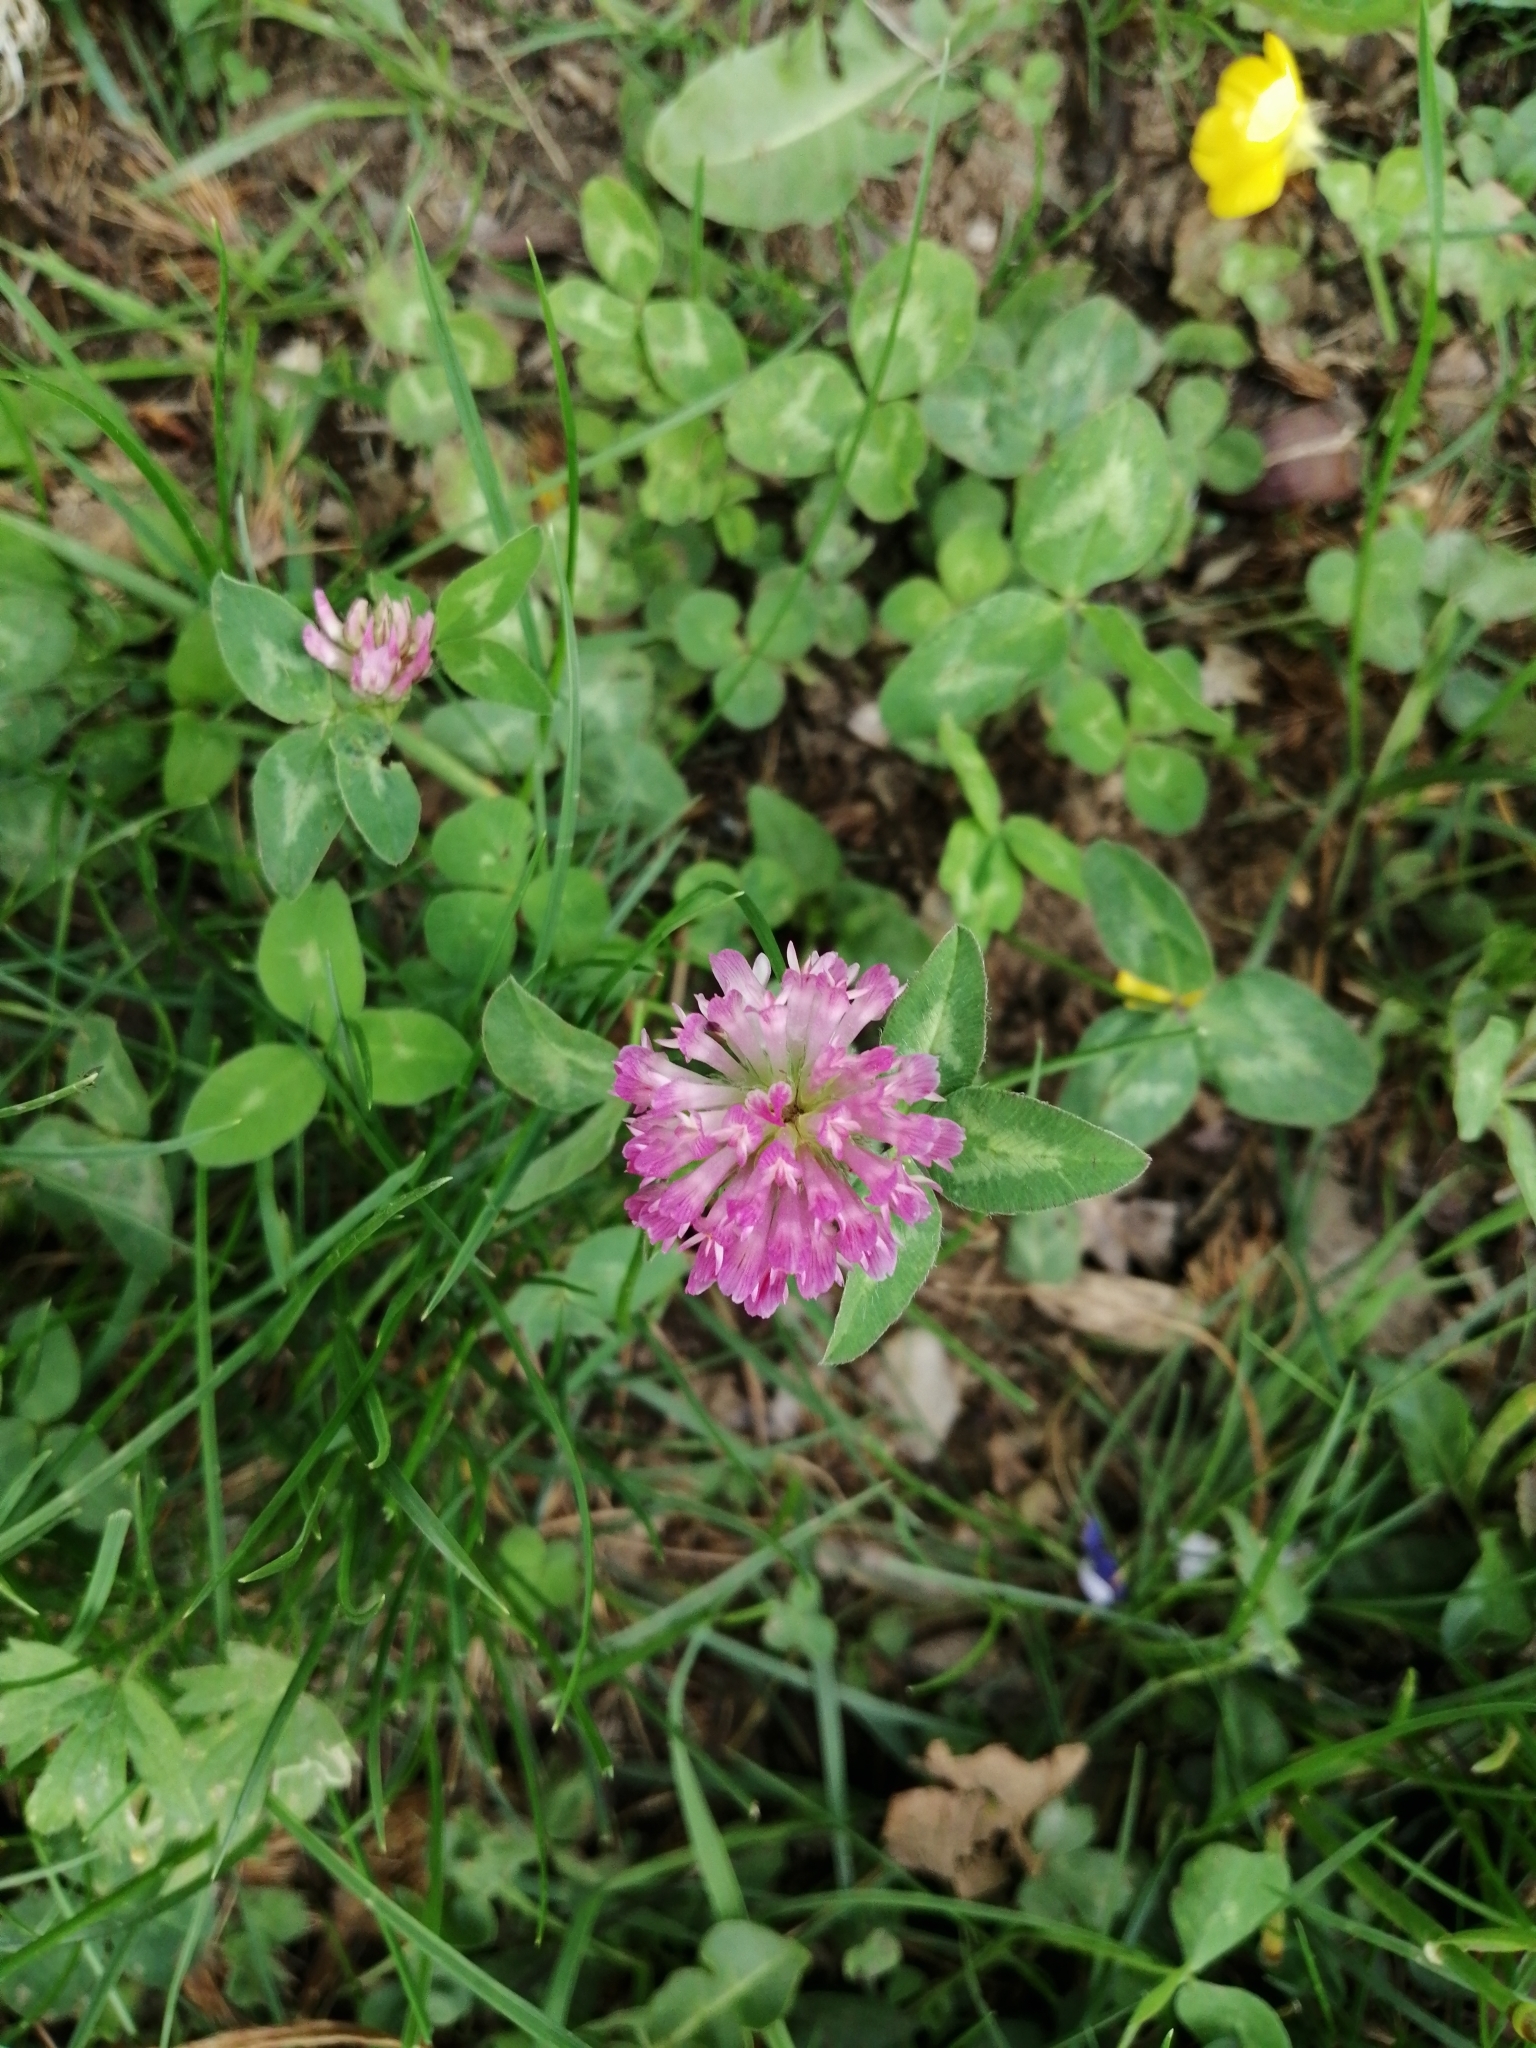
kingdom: Plantae
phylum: Tracheophyta
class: Magnoliopsida
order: Fabales
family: Fabaceae
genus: Trifolium
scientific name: Trifolium pratense
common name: Red clover
